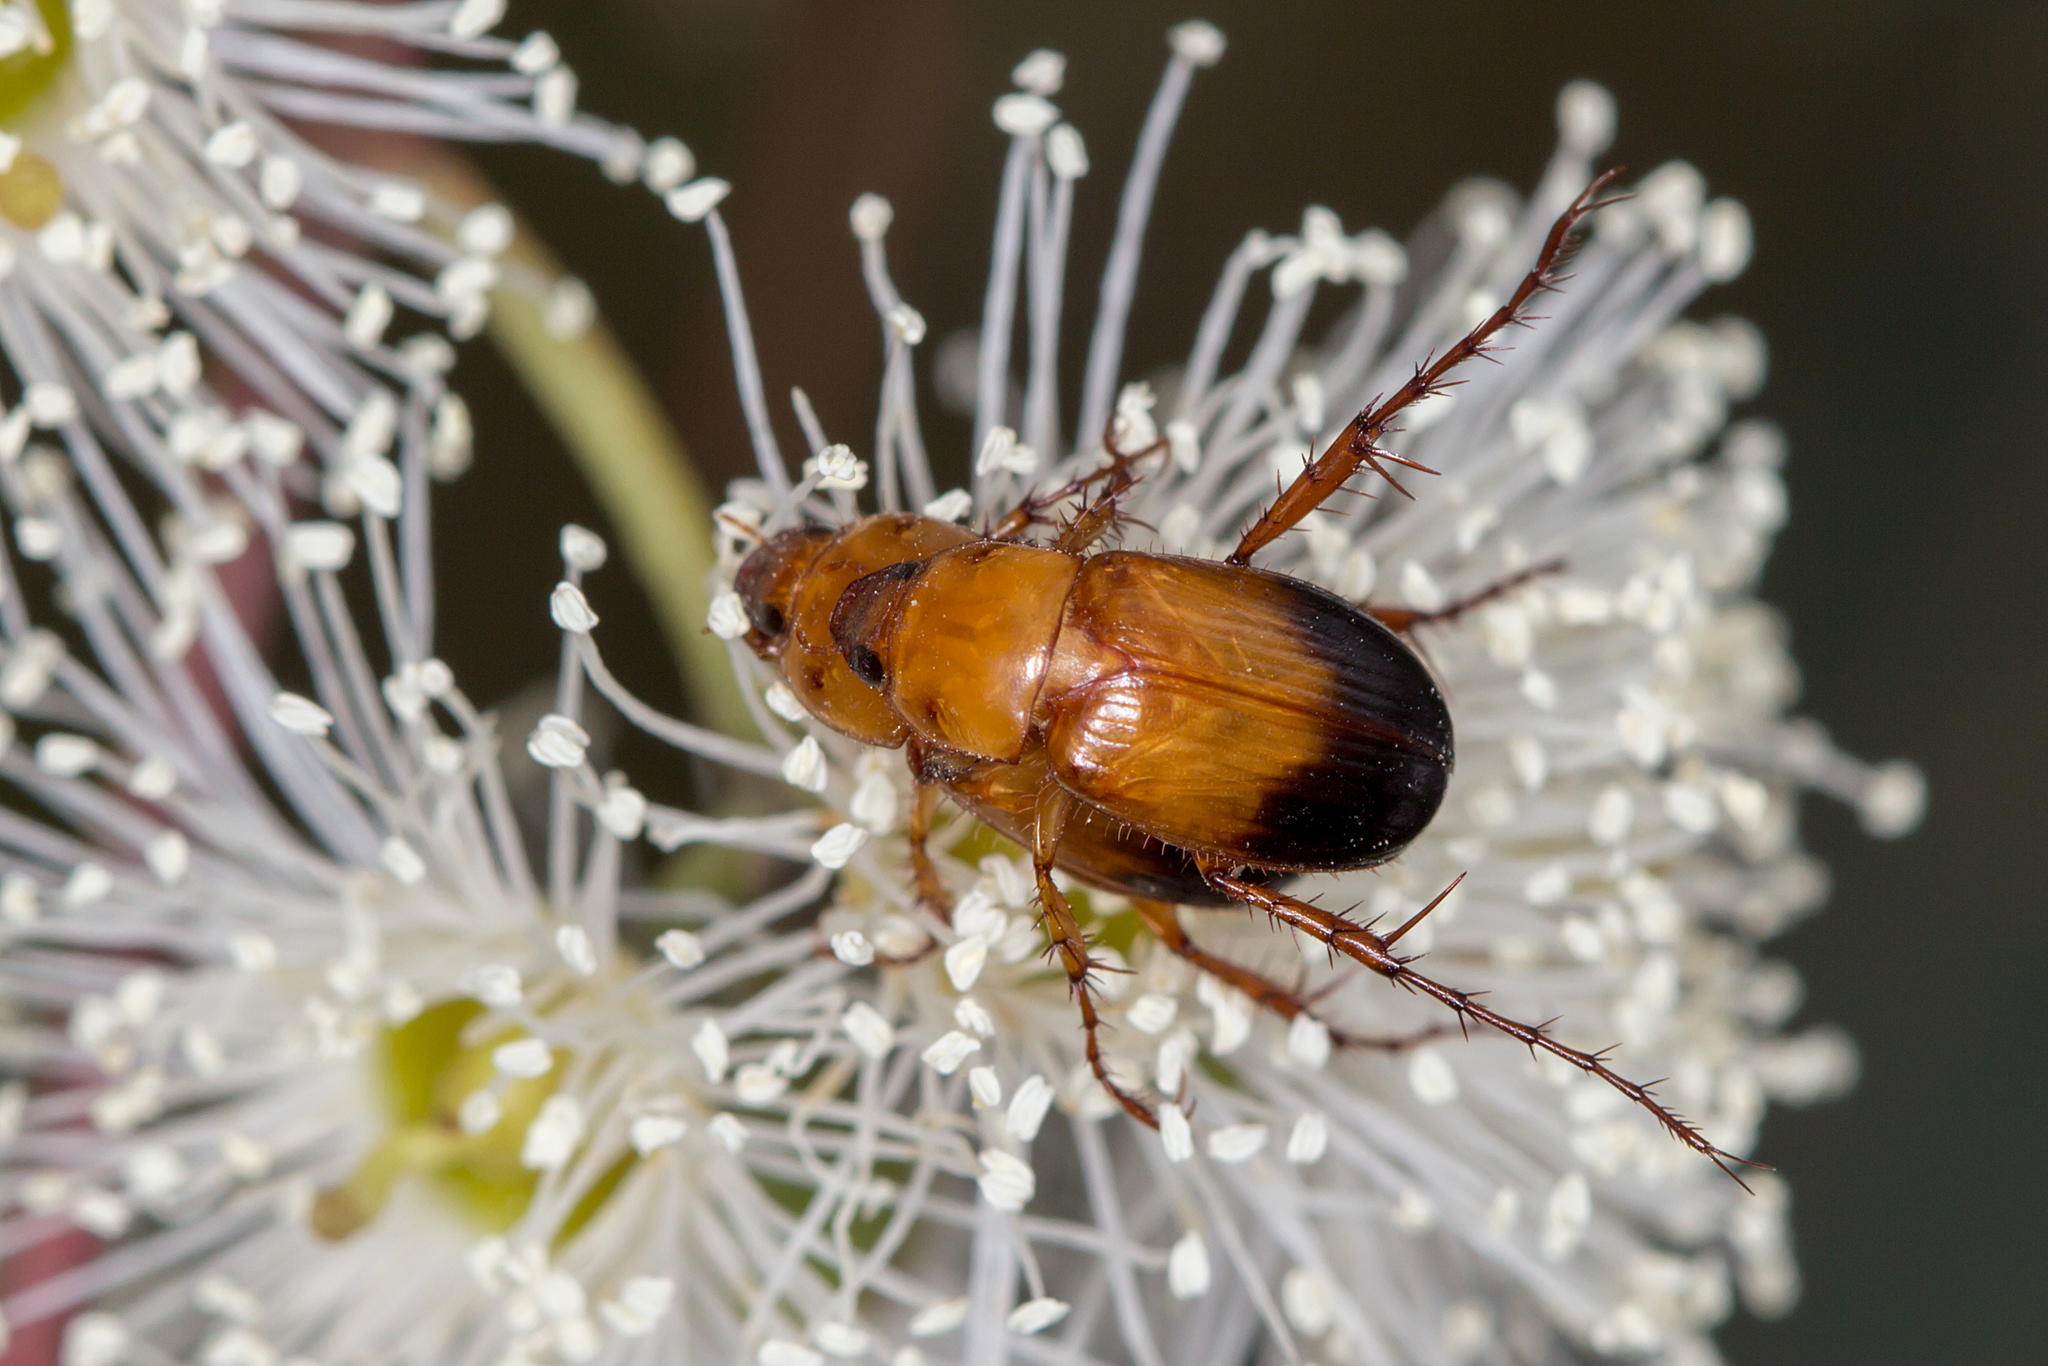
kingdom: Animalia
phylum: Arthropoda
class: Insecta
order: Coleoptera
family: Scarabaeidae
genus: Phyllotocus
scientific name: Phyllotocus macleayi
